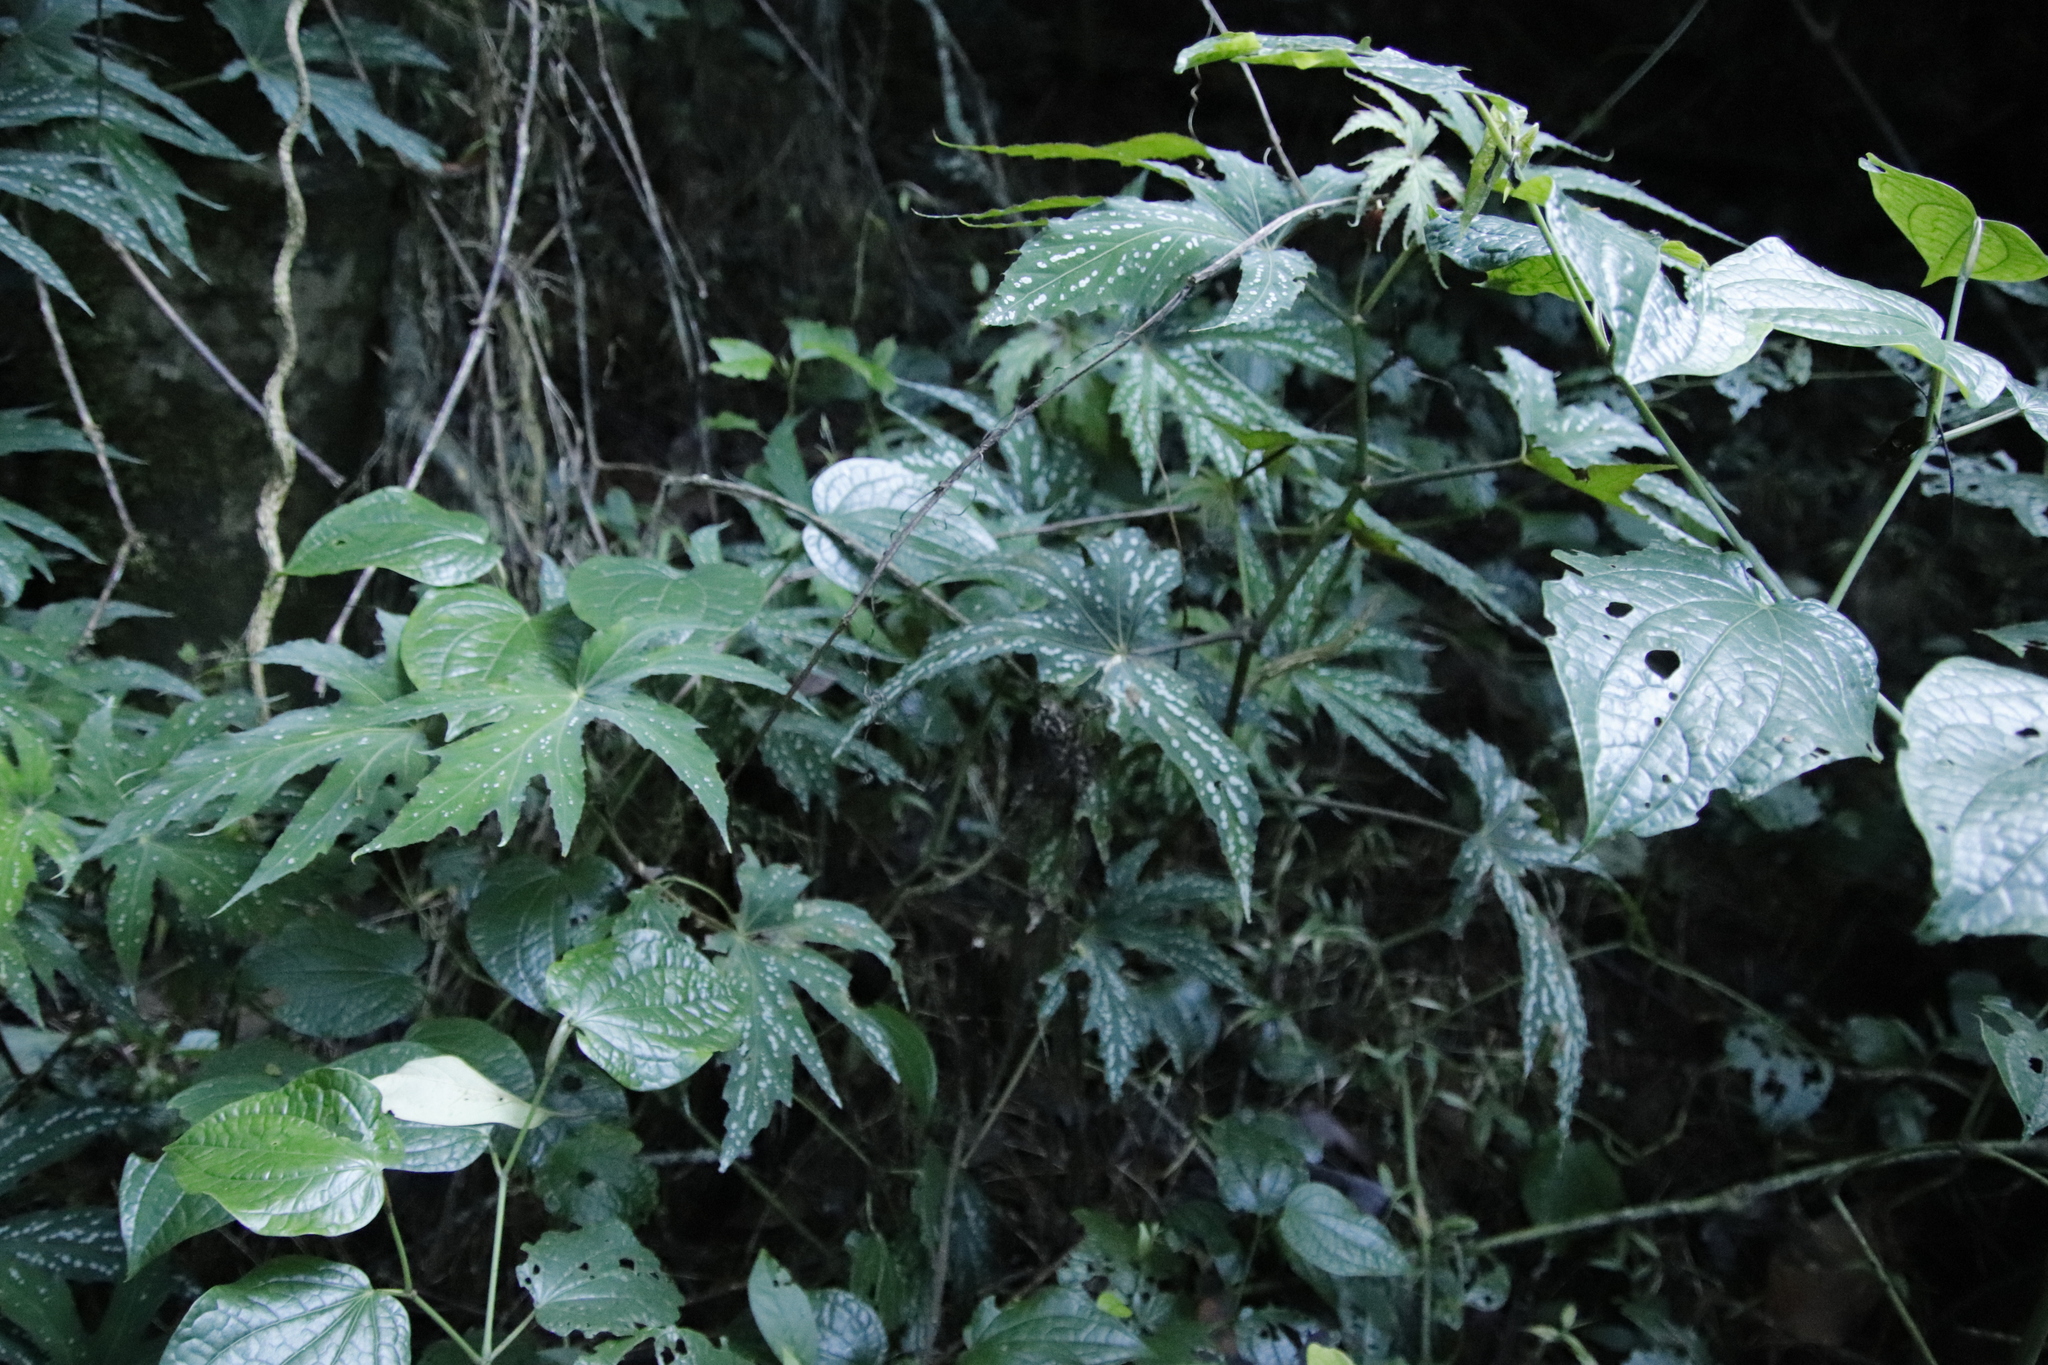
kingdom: Plantae
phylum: Tracheophyta
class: Magnoliopsida
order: Malvales
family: Malvaceae
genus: Sparrmannia
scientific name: Sparrmannia ricinocarpa
